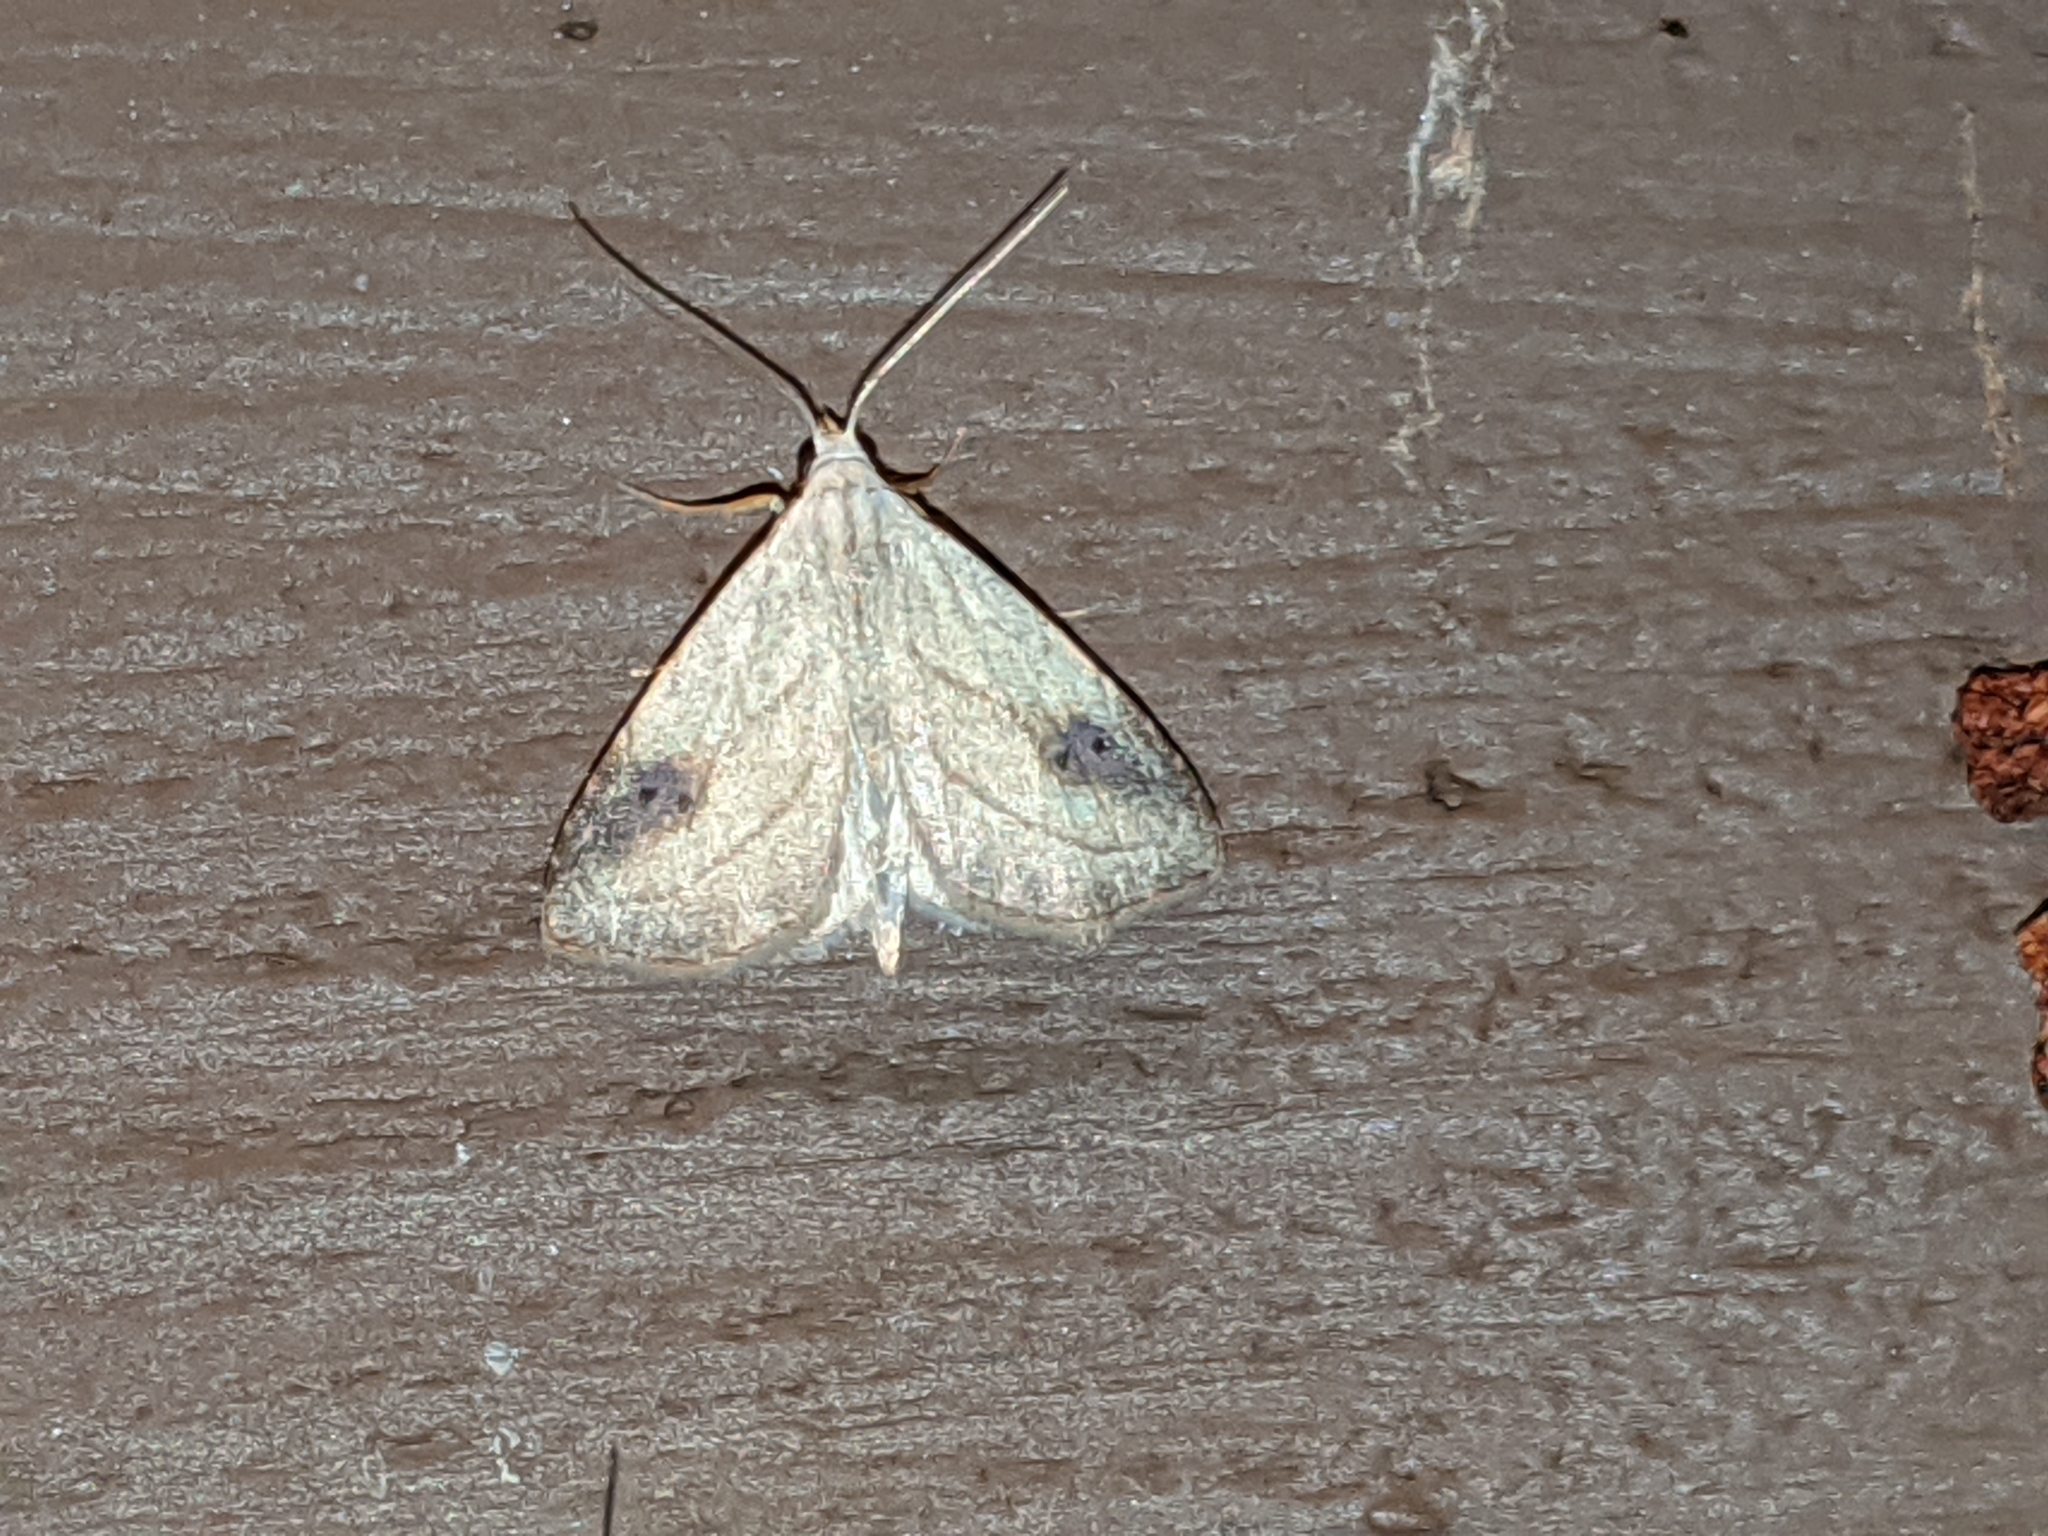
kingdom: Animalia
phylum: Arthropoda
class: Insecta
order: Lepidoptera
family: Erebidae
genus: Rivula
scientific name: Rivula propinqualis
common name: Spotted grass moth
